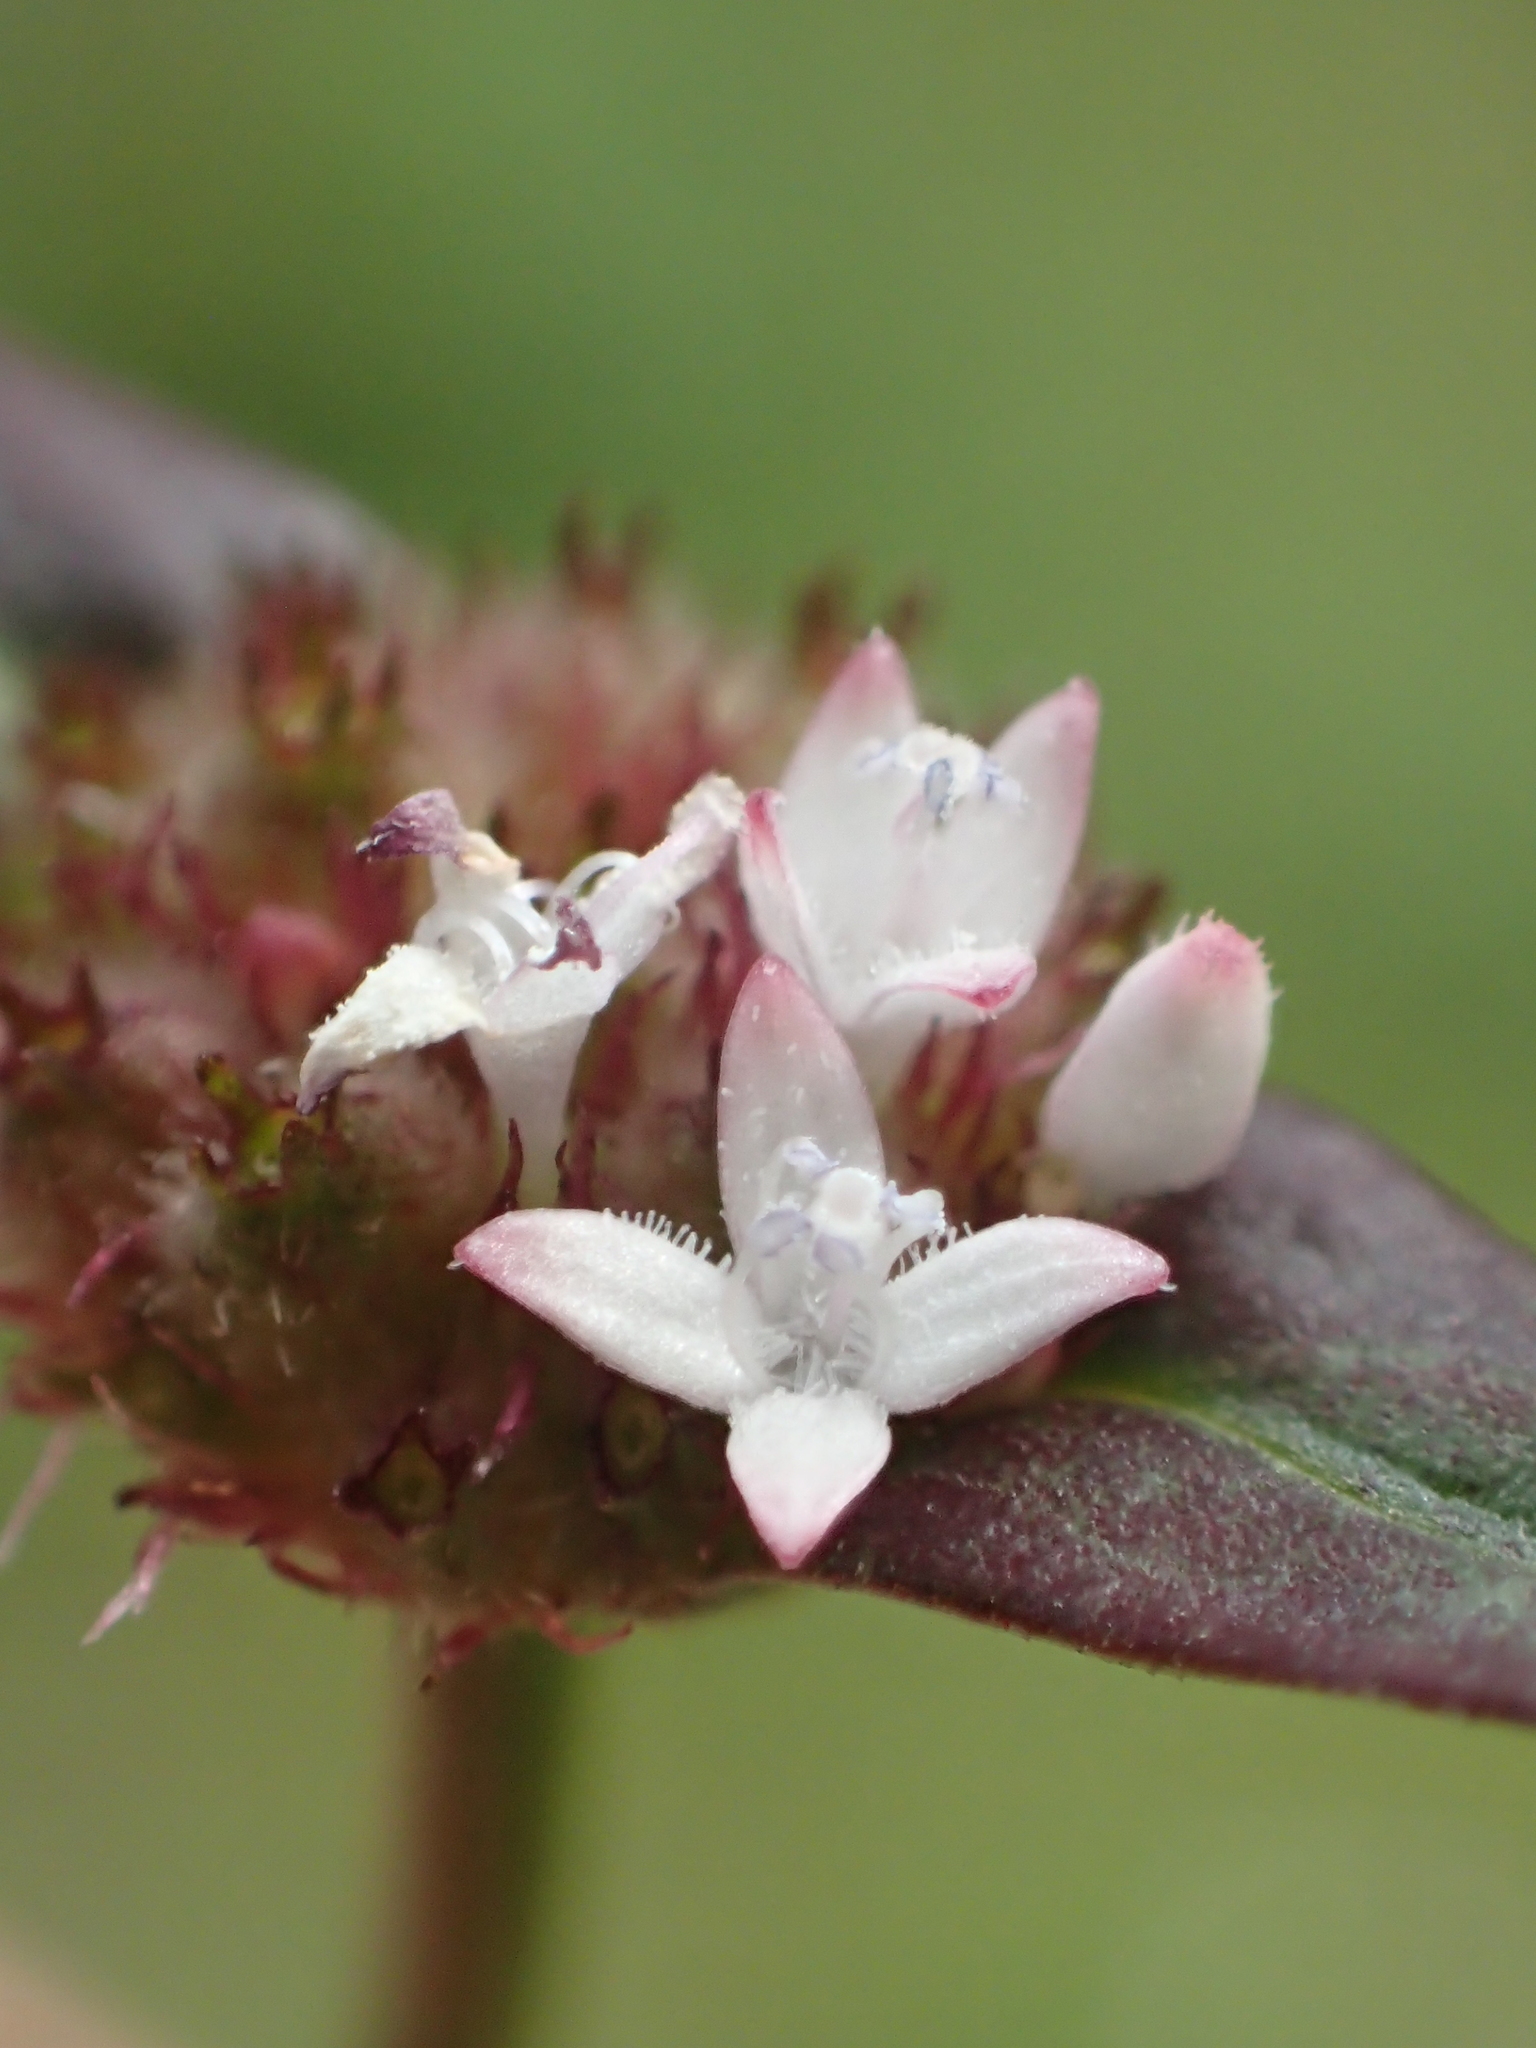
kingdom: Plantae
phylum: Tracheophyta
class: Magnoliopsida
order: Gentianales
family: Rubiaceae
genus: Spermacoce
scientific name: Spermacoce remota
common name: Woodland false buttonweed
